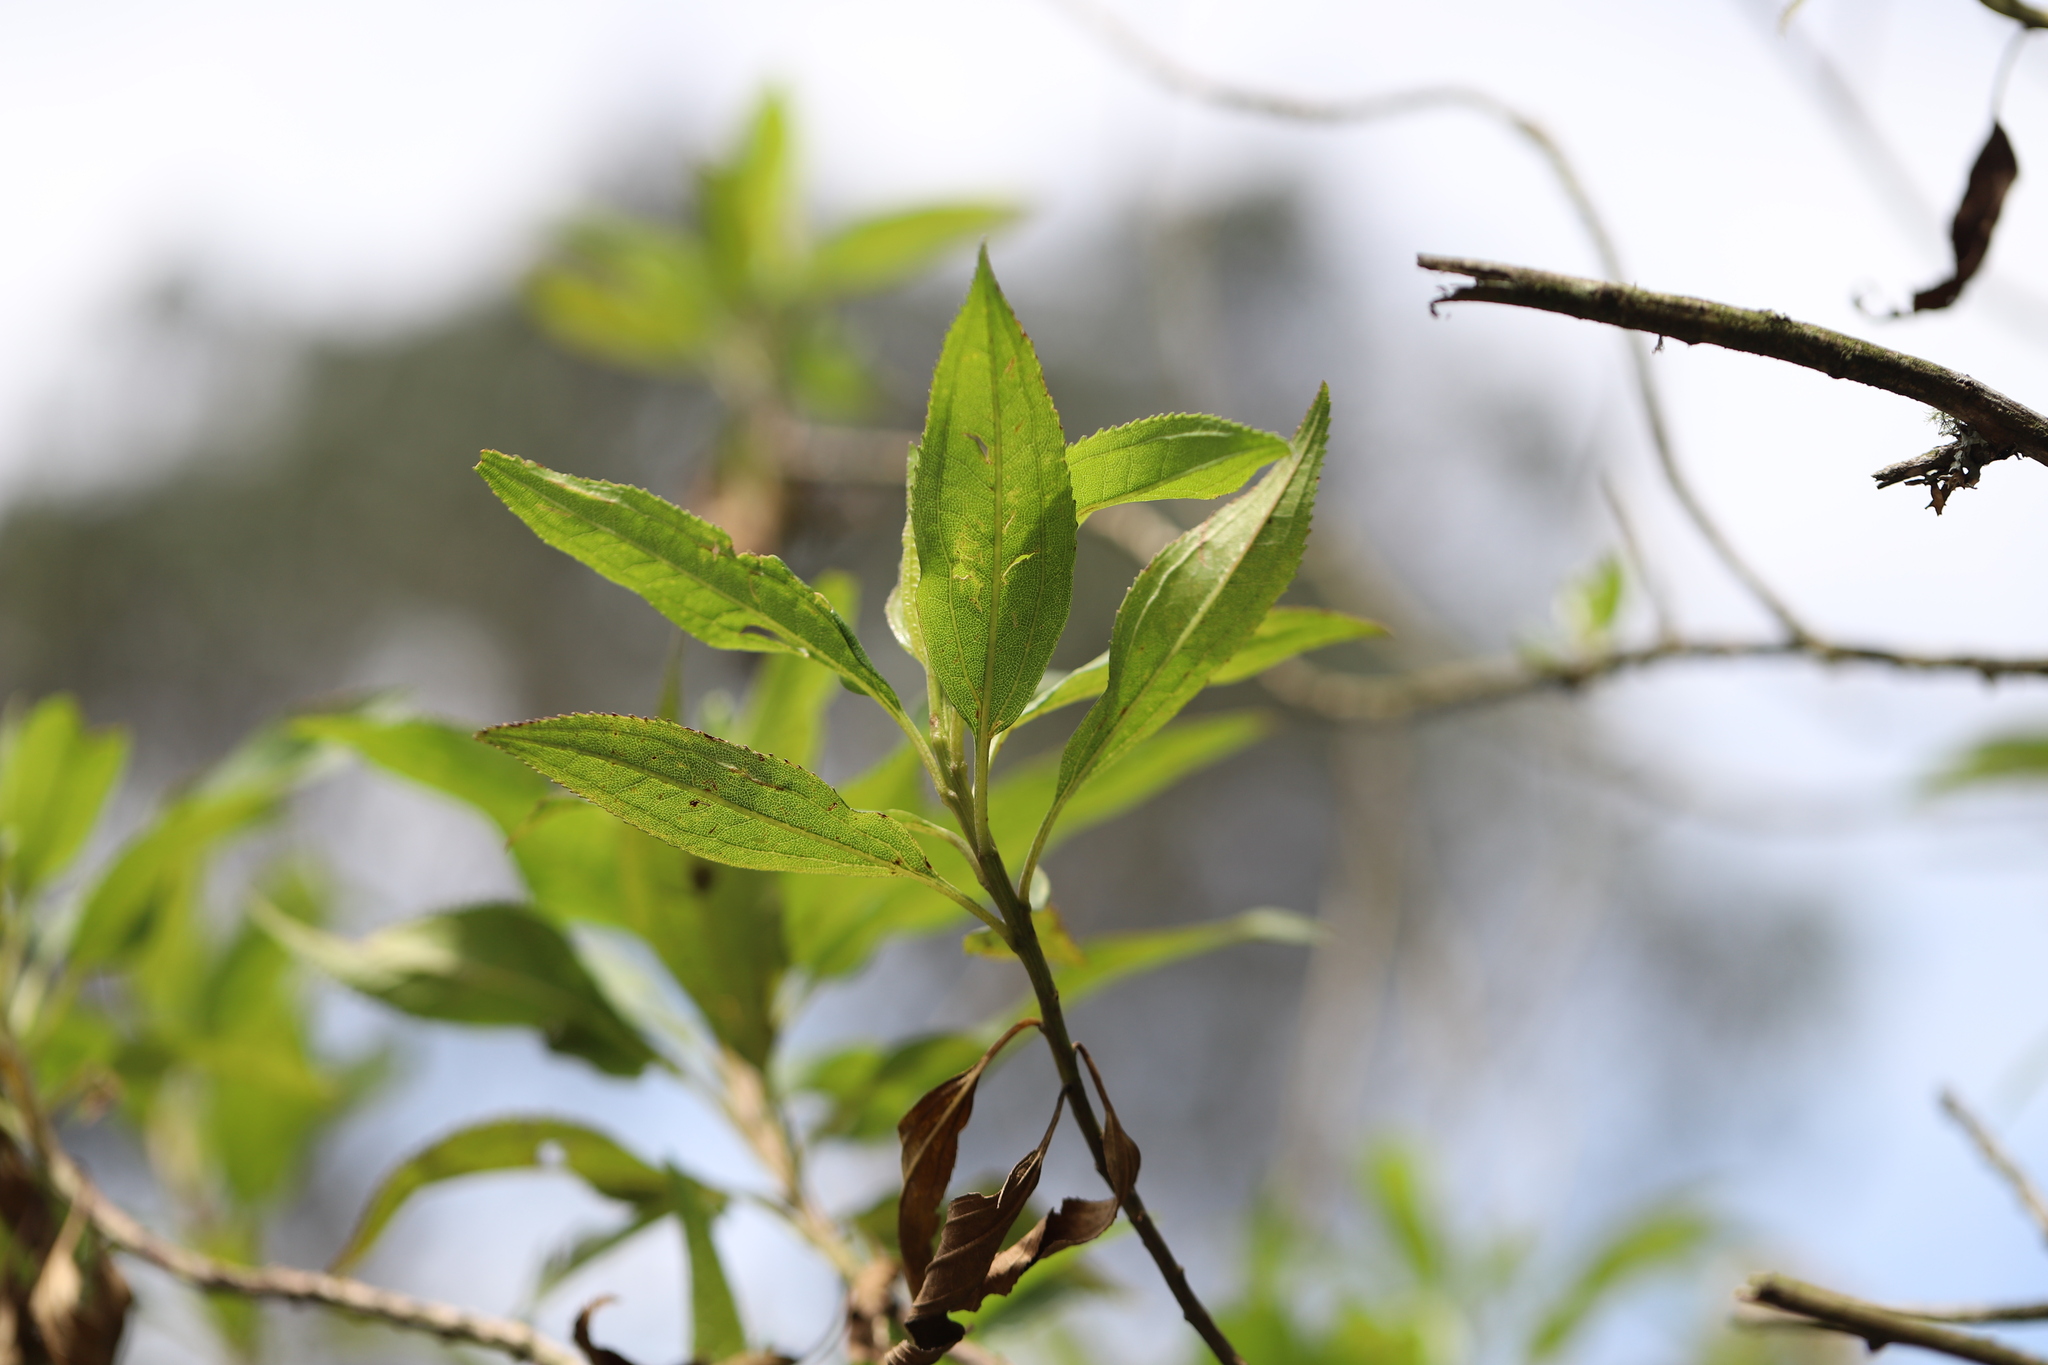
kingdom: Plantae
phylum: Tracheophyta
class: Magnoliopsida
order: Asterales
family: Asteraceae
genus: Baccharis
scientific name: Baccharis latifolia
